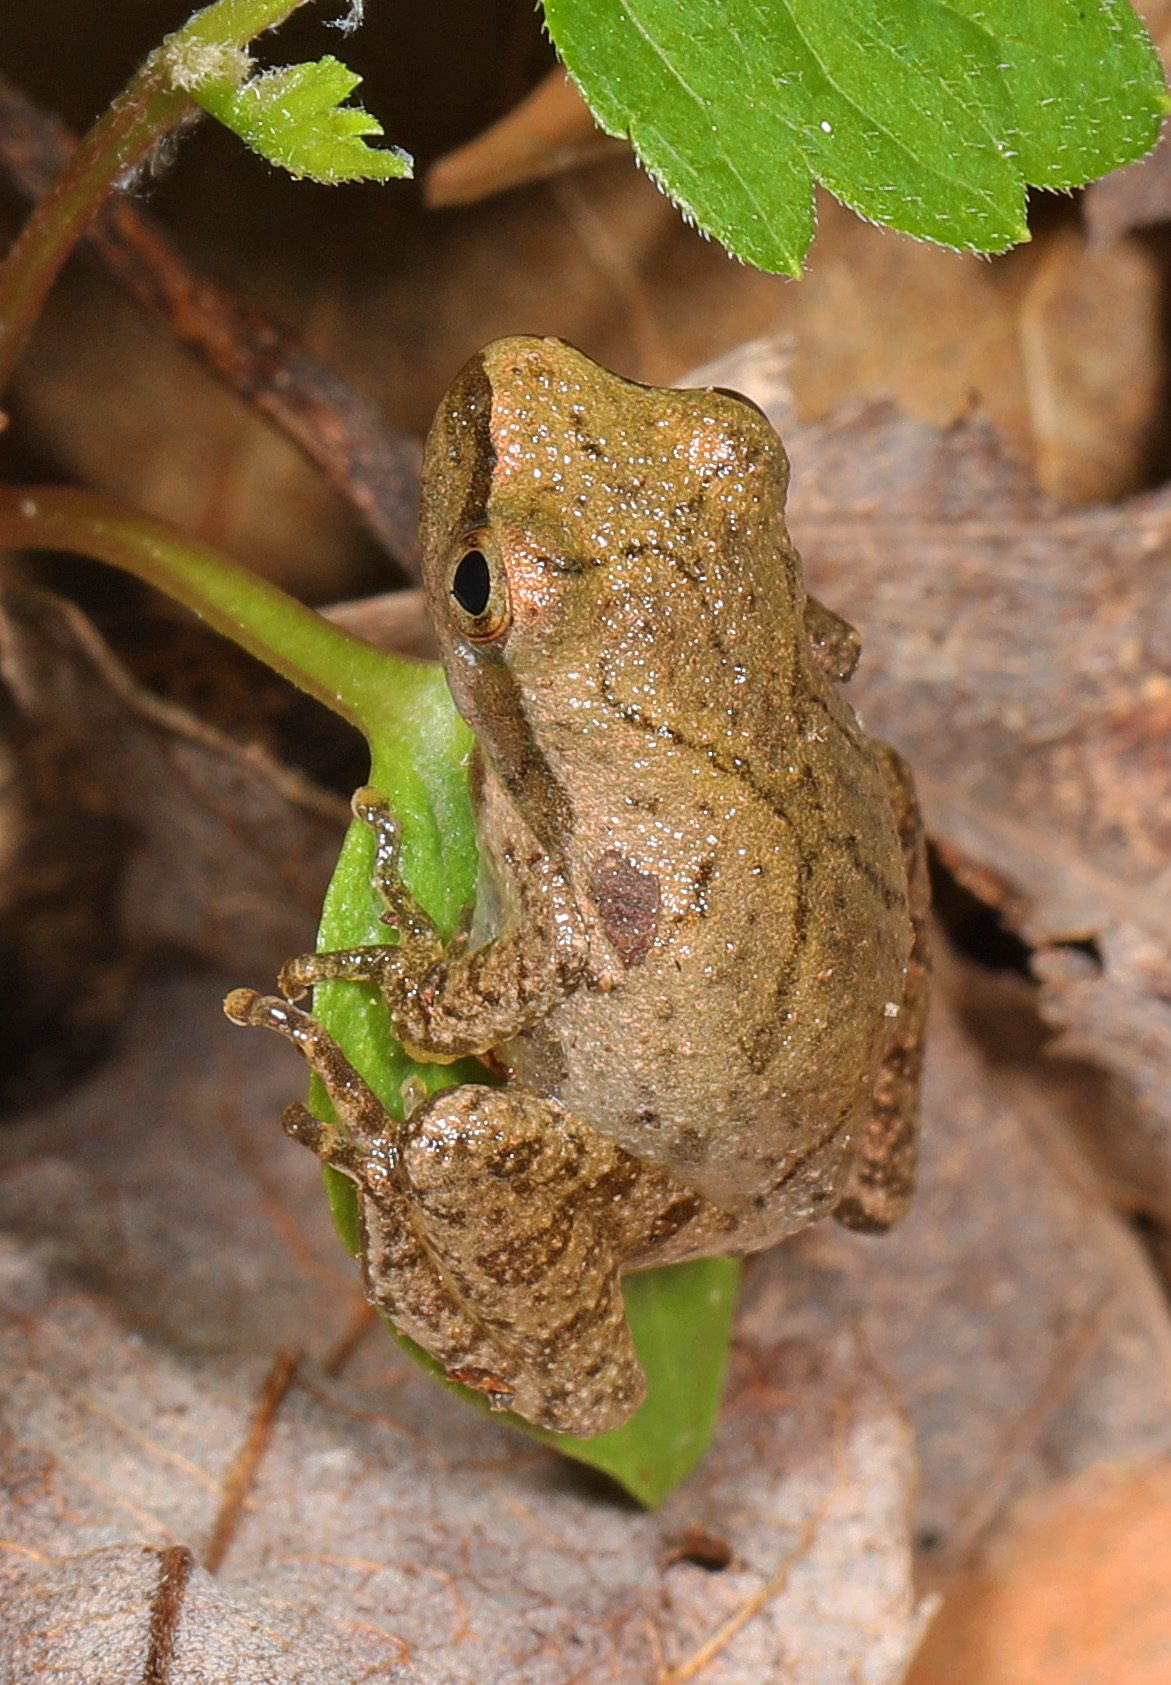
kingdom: Animalia
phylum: Chordata
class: Amphibia
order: Anura
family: Hylidae
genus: Pseudacris
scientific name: Pseudacris crucifer
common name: Spring peeper
